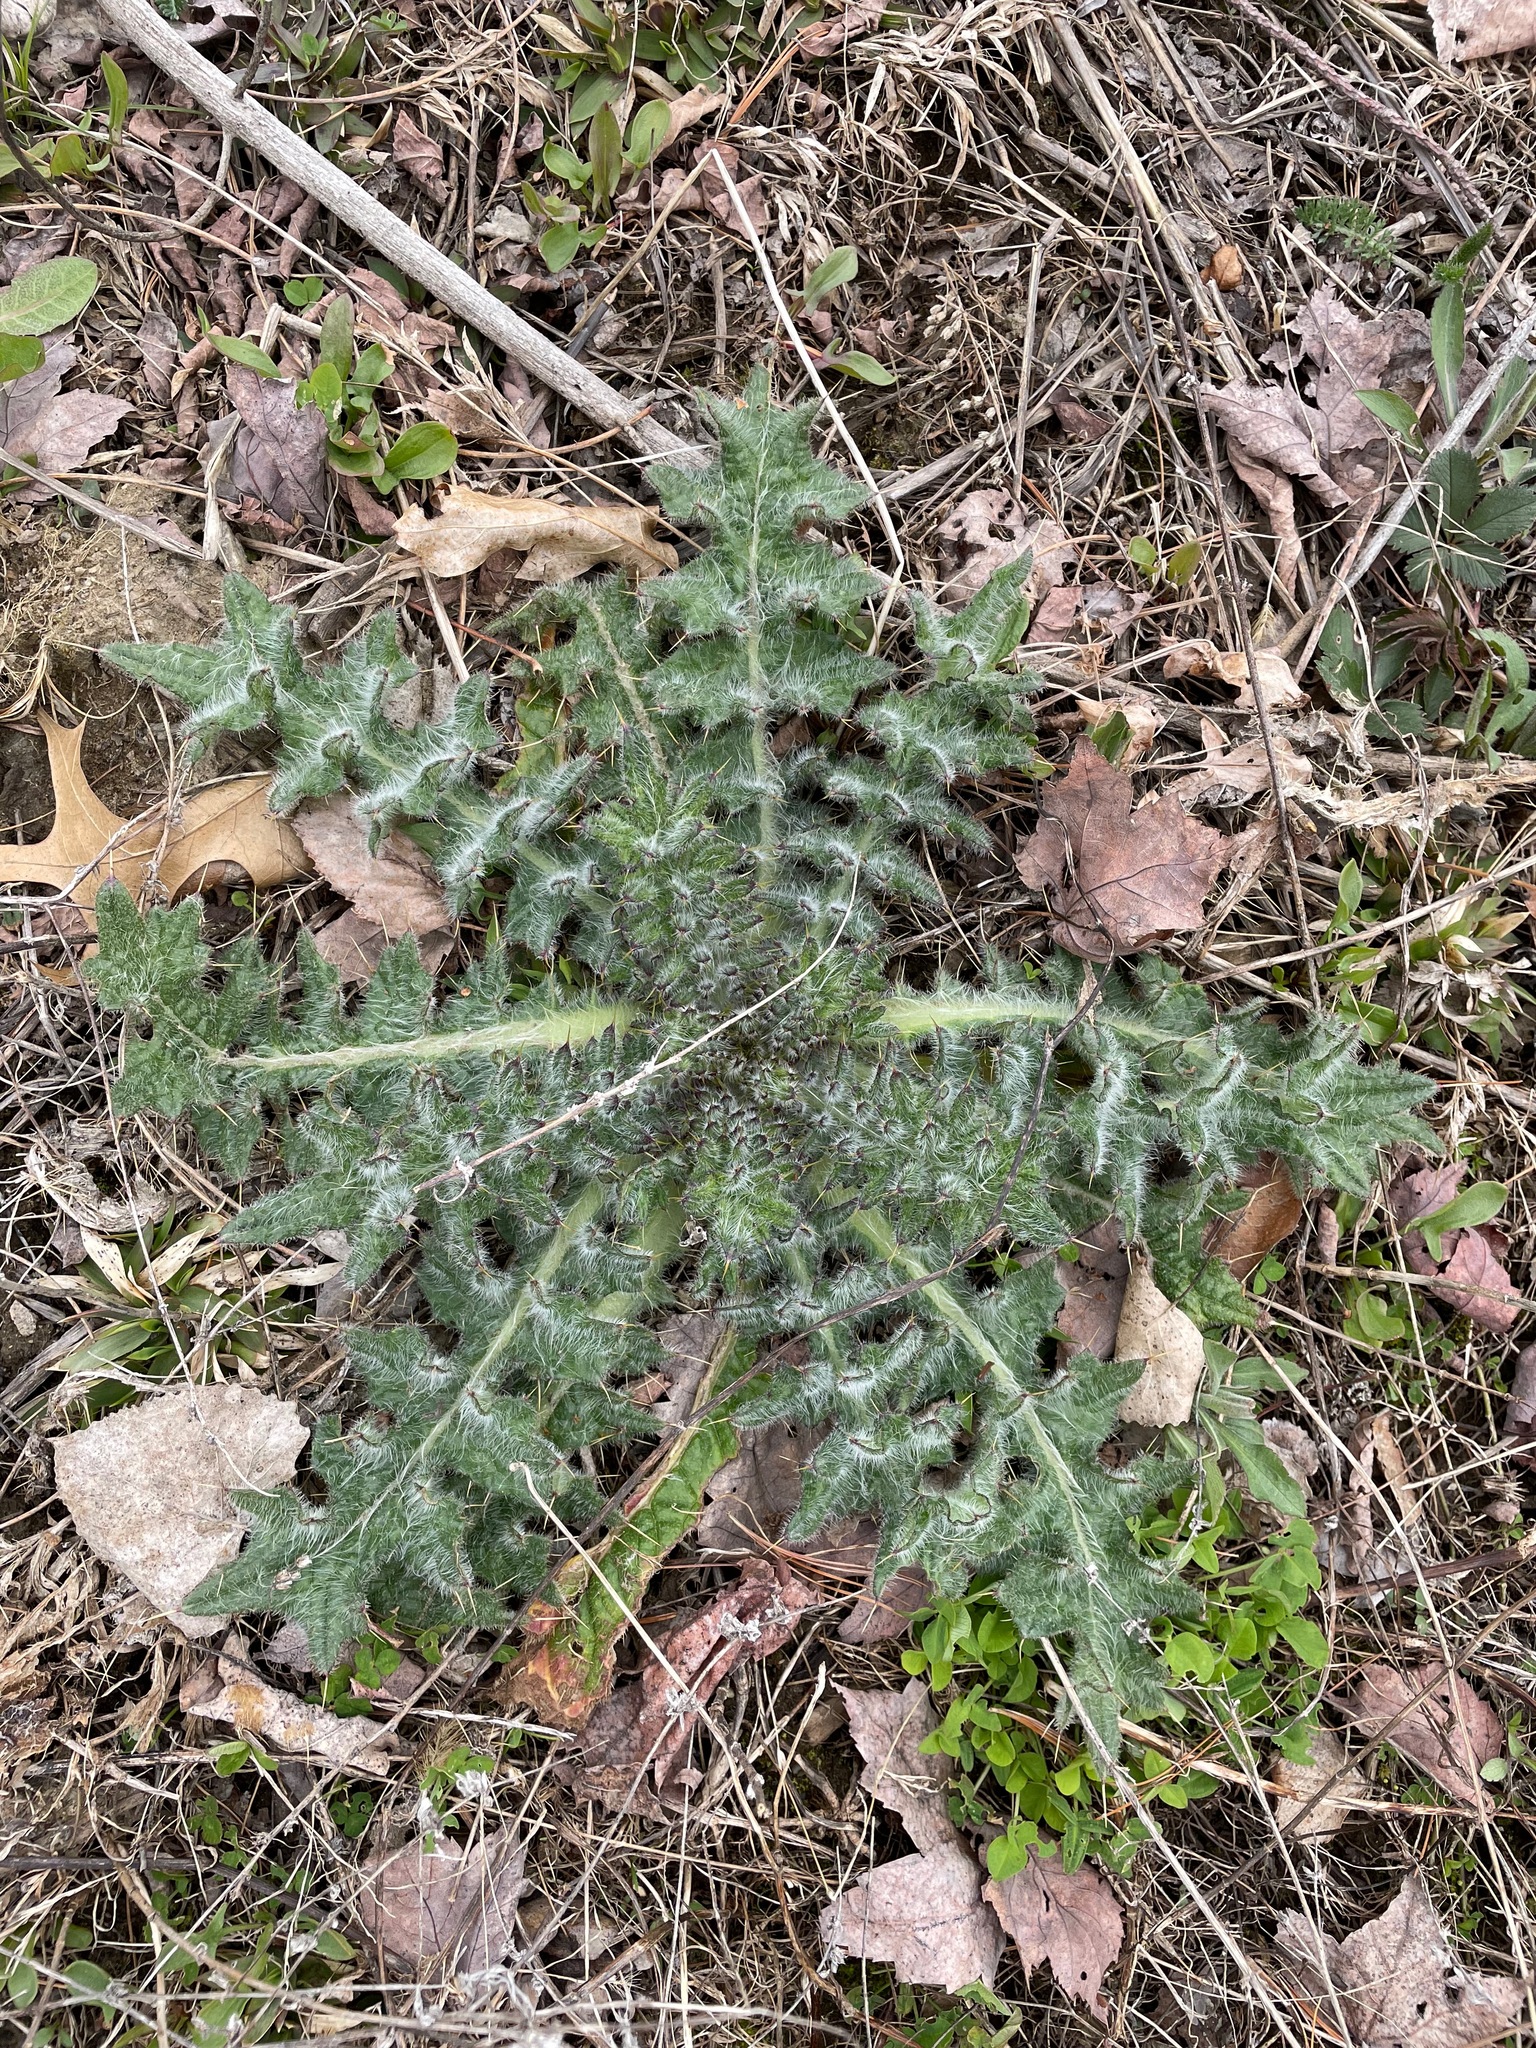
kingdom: Plantae
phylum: Tracheophyta
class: Magnoliopsida
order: Asterales
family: Asteraceae
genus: Cirsium
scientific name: Cirsium vulgare
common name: Bull thistle
